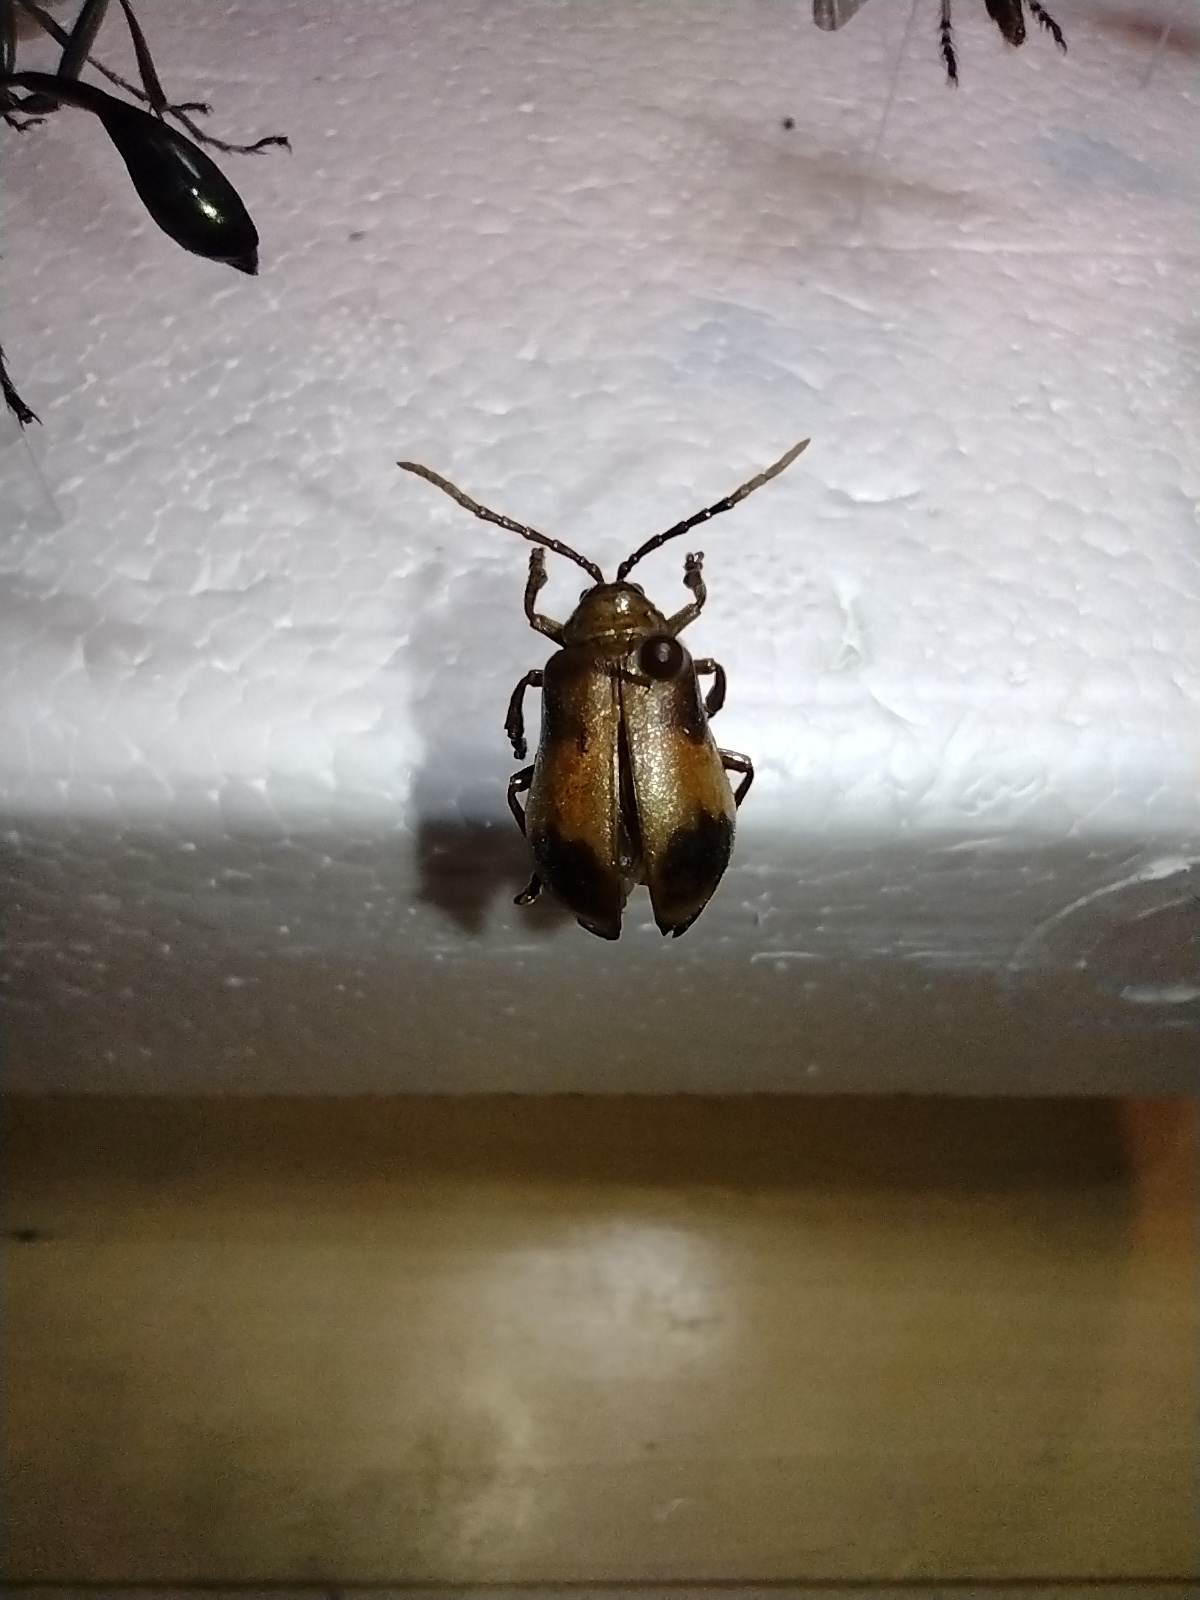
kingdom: Animalia
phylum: Arthropoda
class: Insecta
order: Coleoptera
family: Chrysomelidae
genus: Monocesta
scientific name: Monocesta coryli
